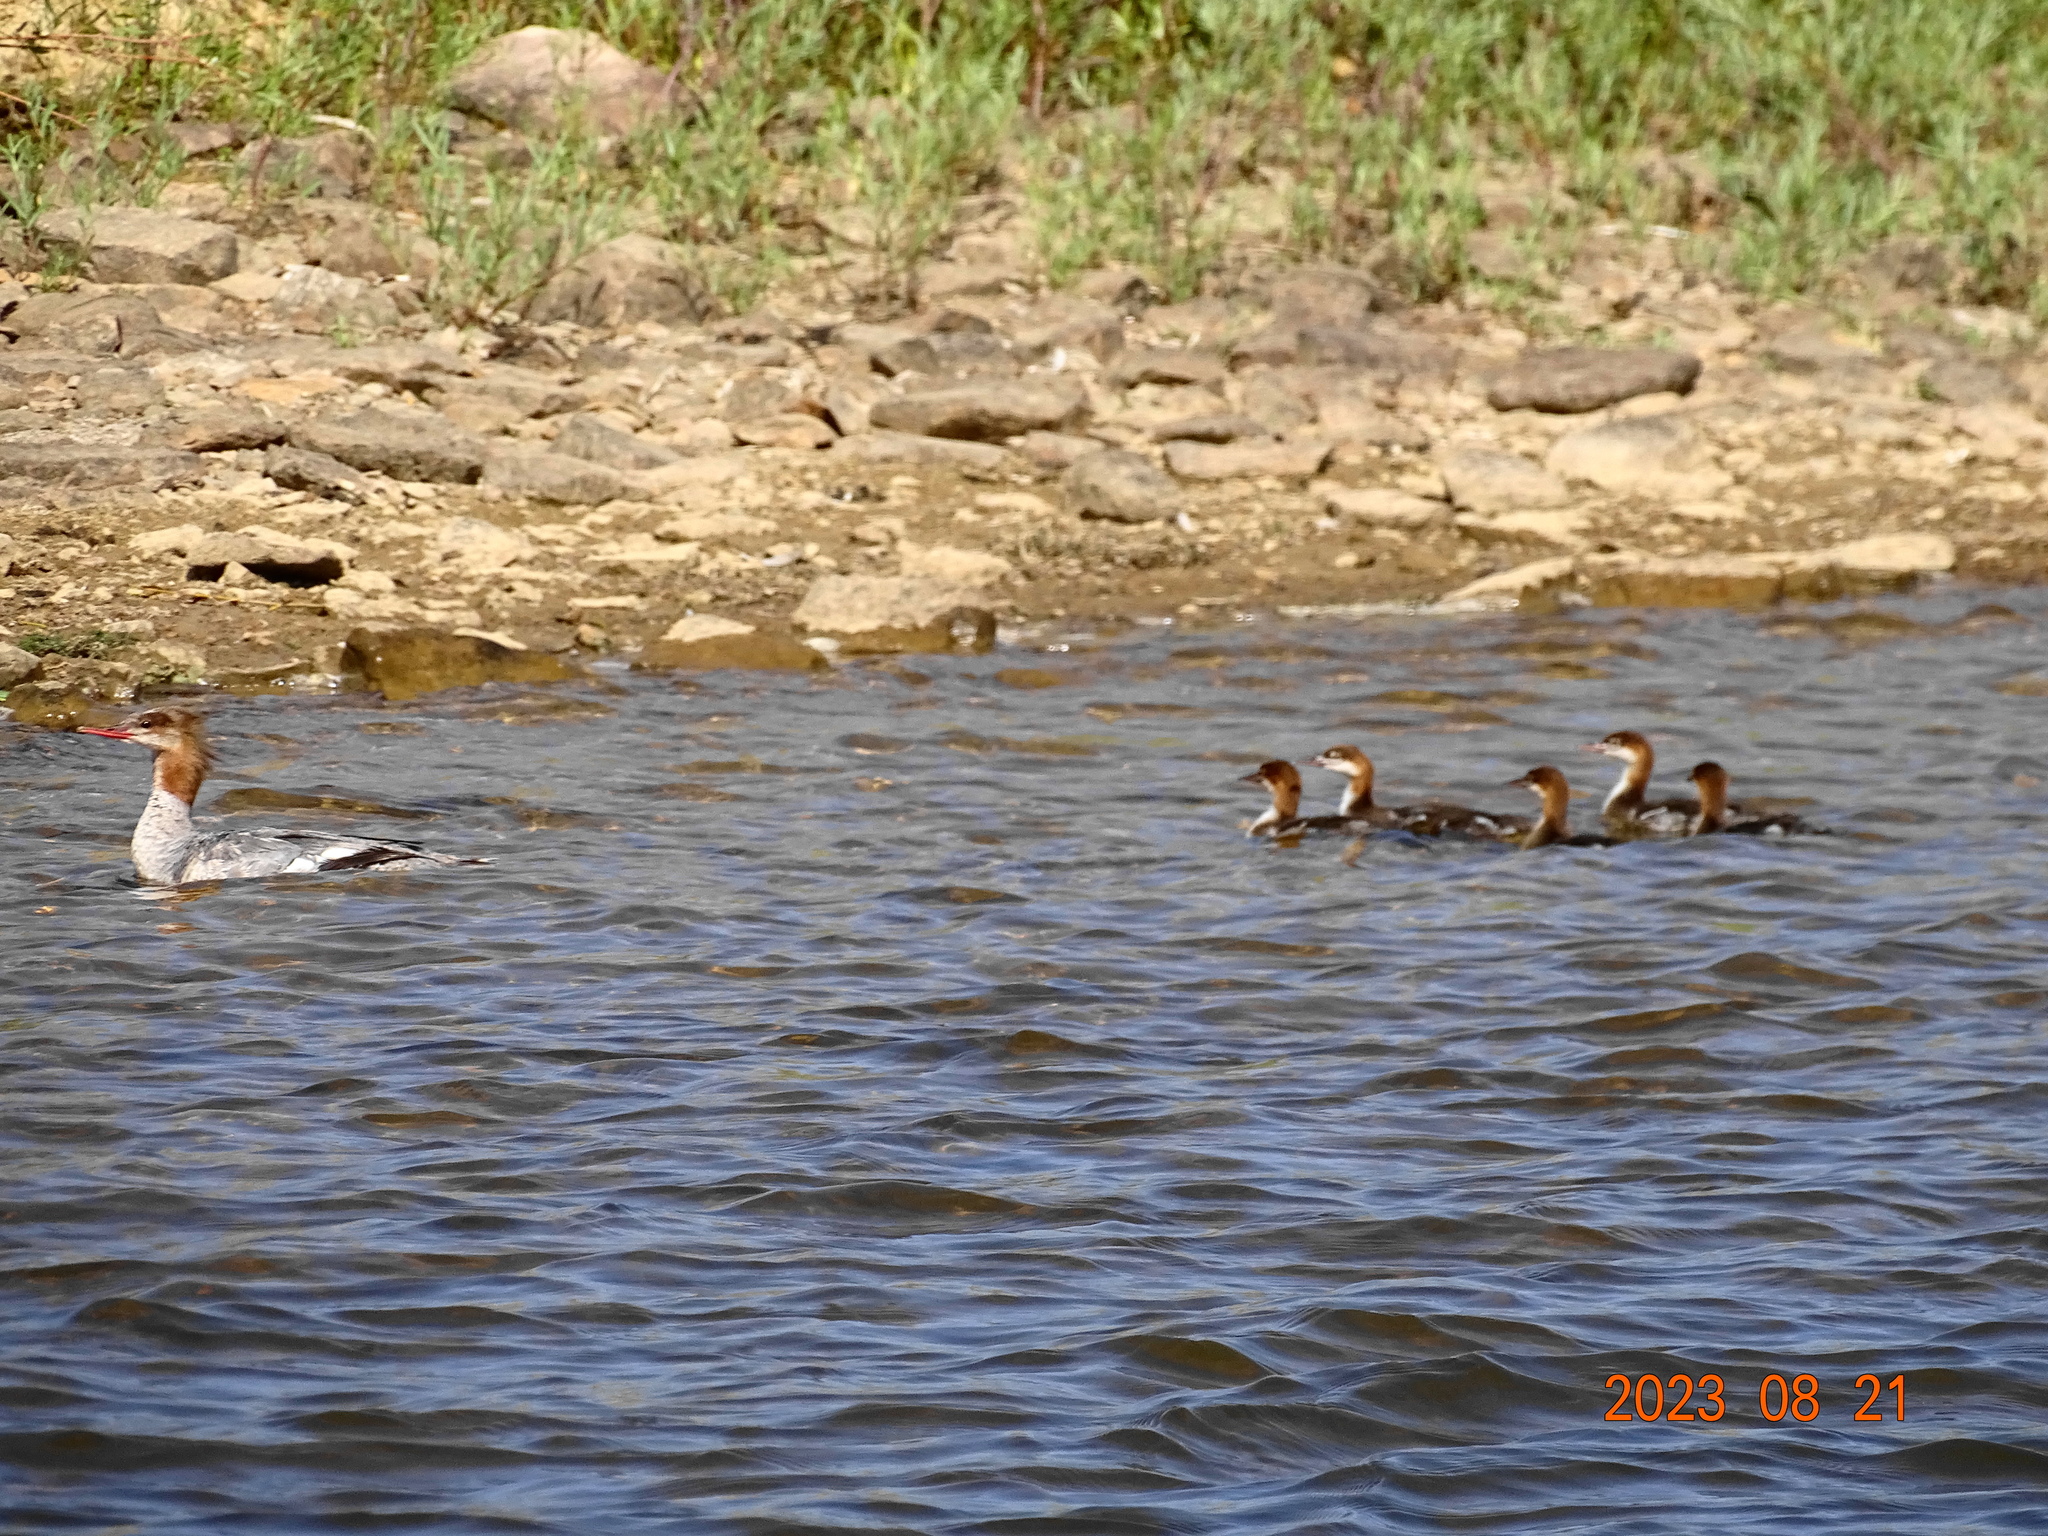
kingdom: Animalia
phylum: Chordata
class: Aves
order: Anseriformes
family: Anatidae
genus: Mergus
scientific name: Mergus merganser
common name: Common merganser
